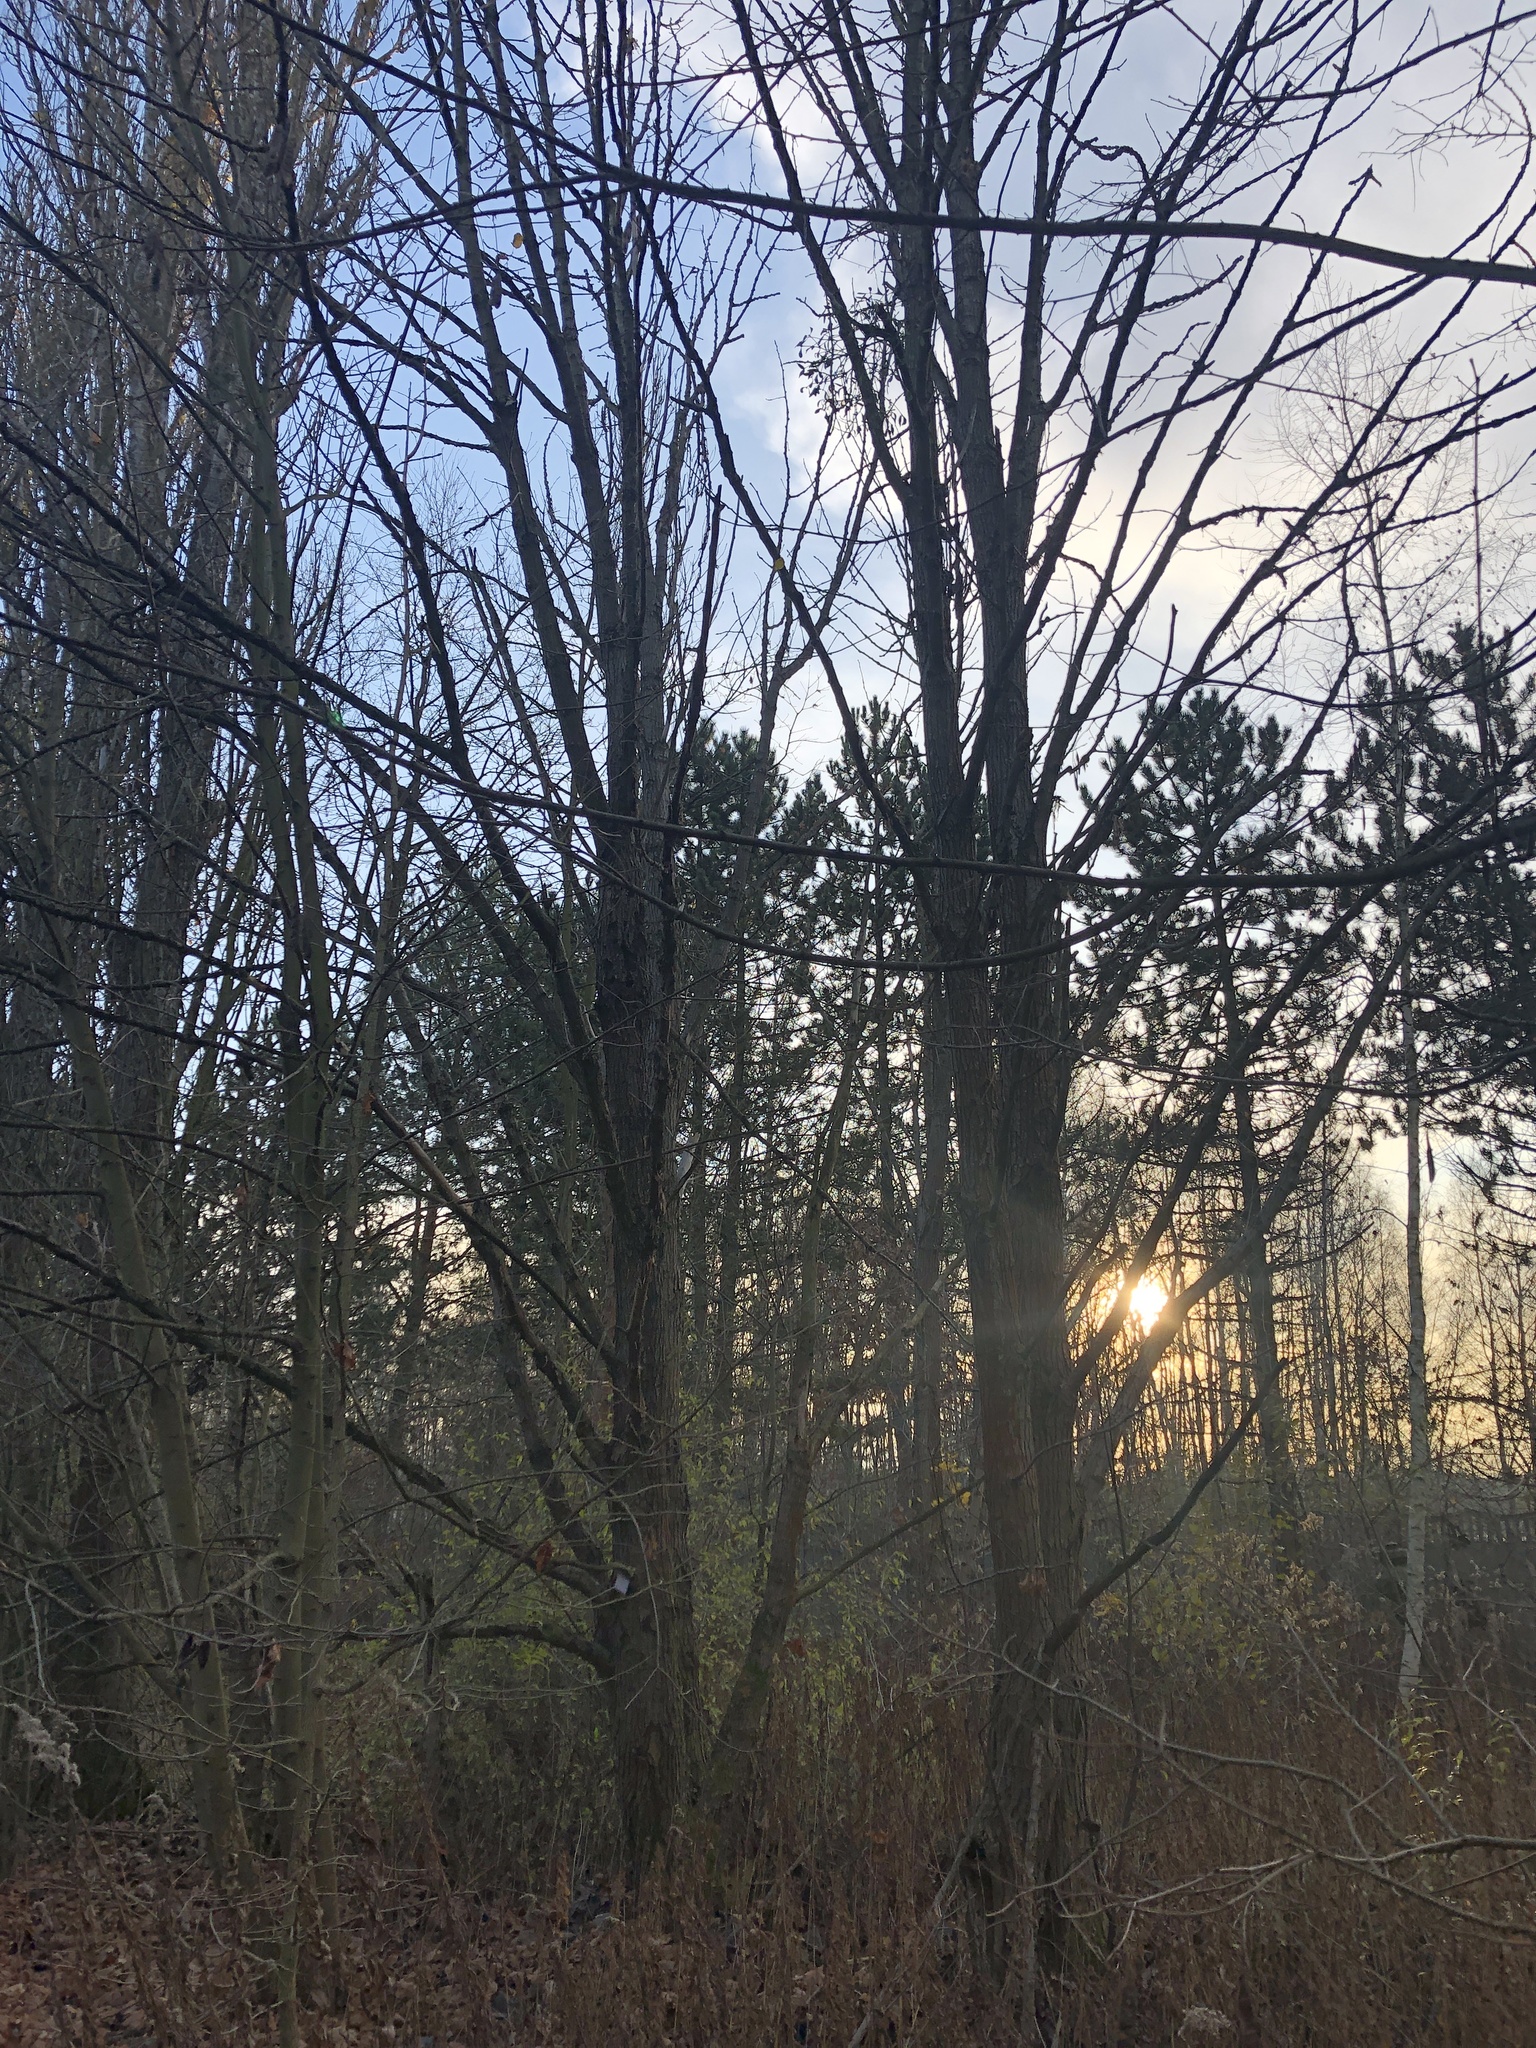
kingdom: Plantae
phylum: Tracheophyta
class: Magnoliopsida
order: Malpighiales
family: Salicaceae
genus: Populus
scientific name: Populus glauca
